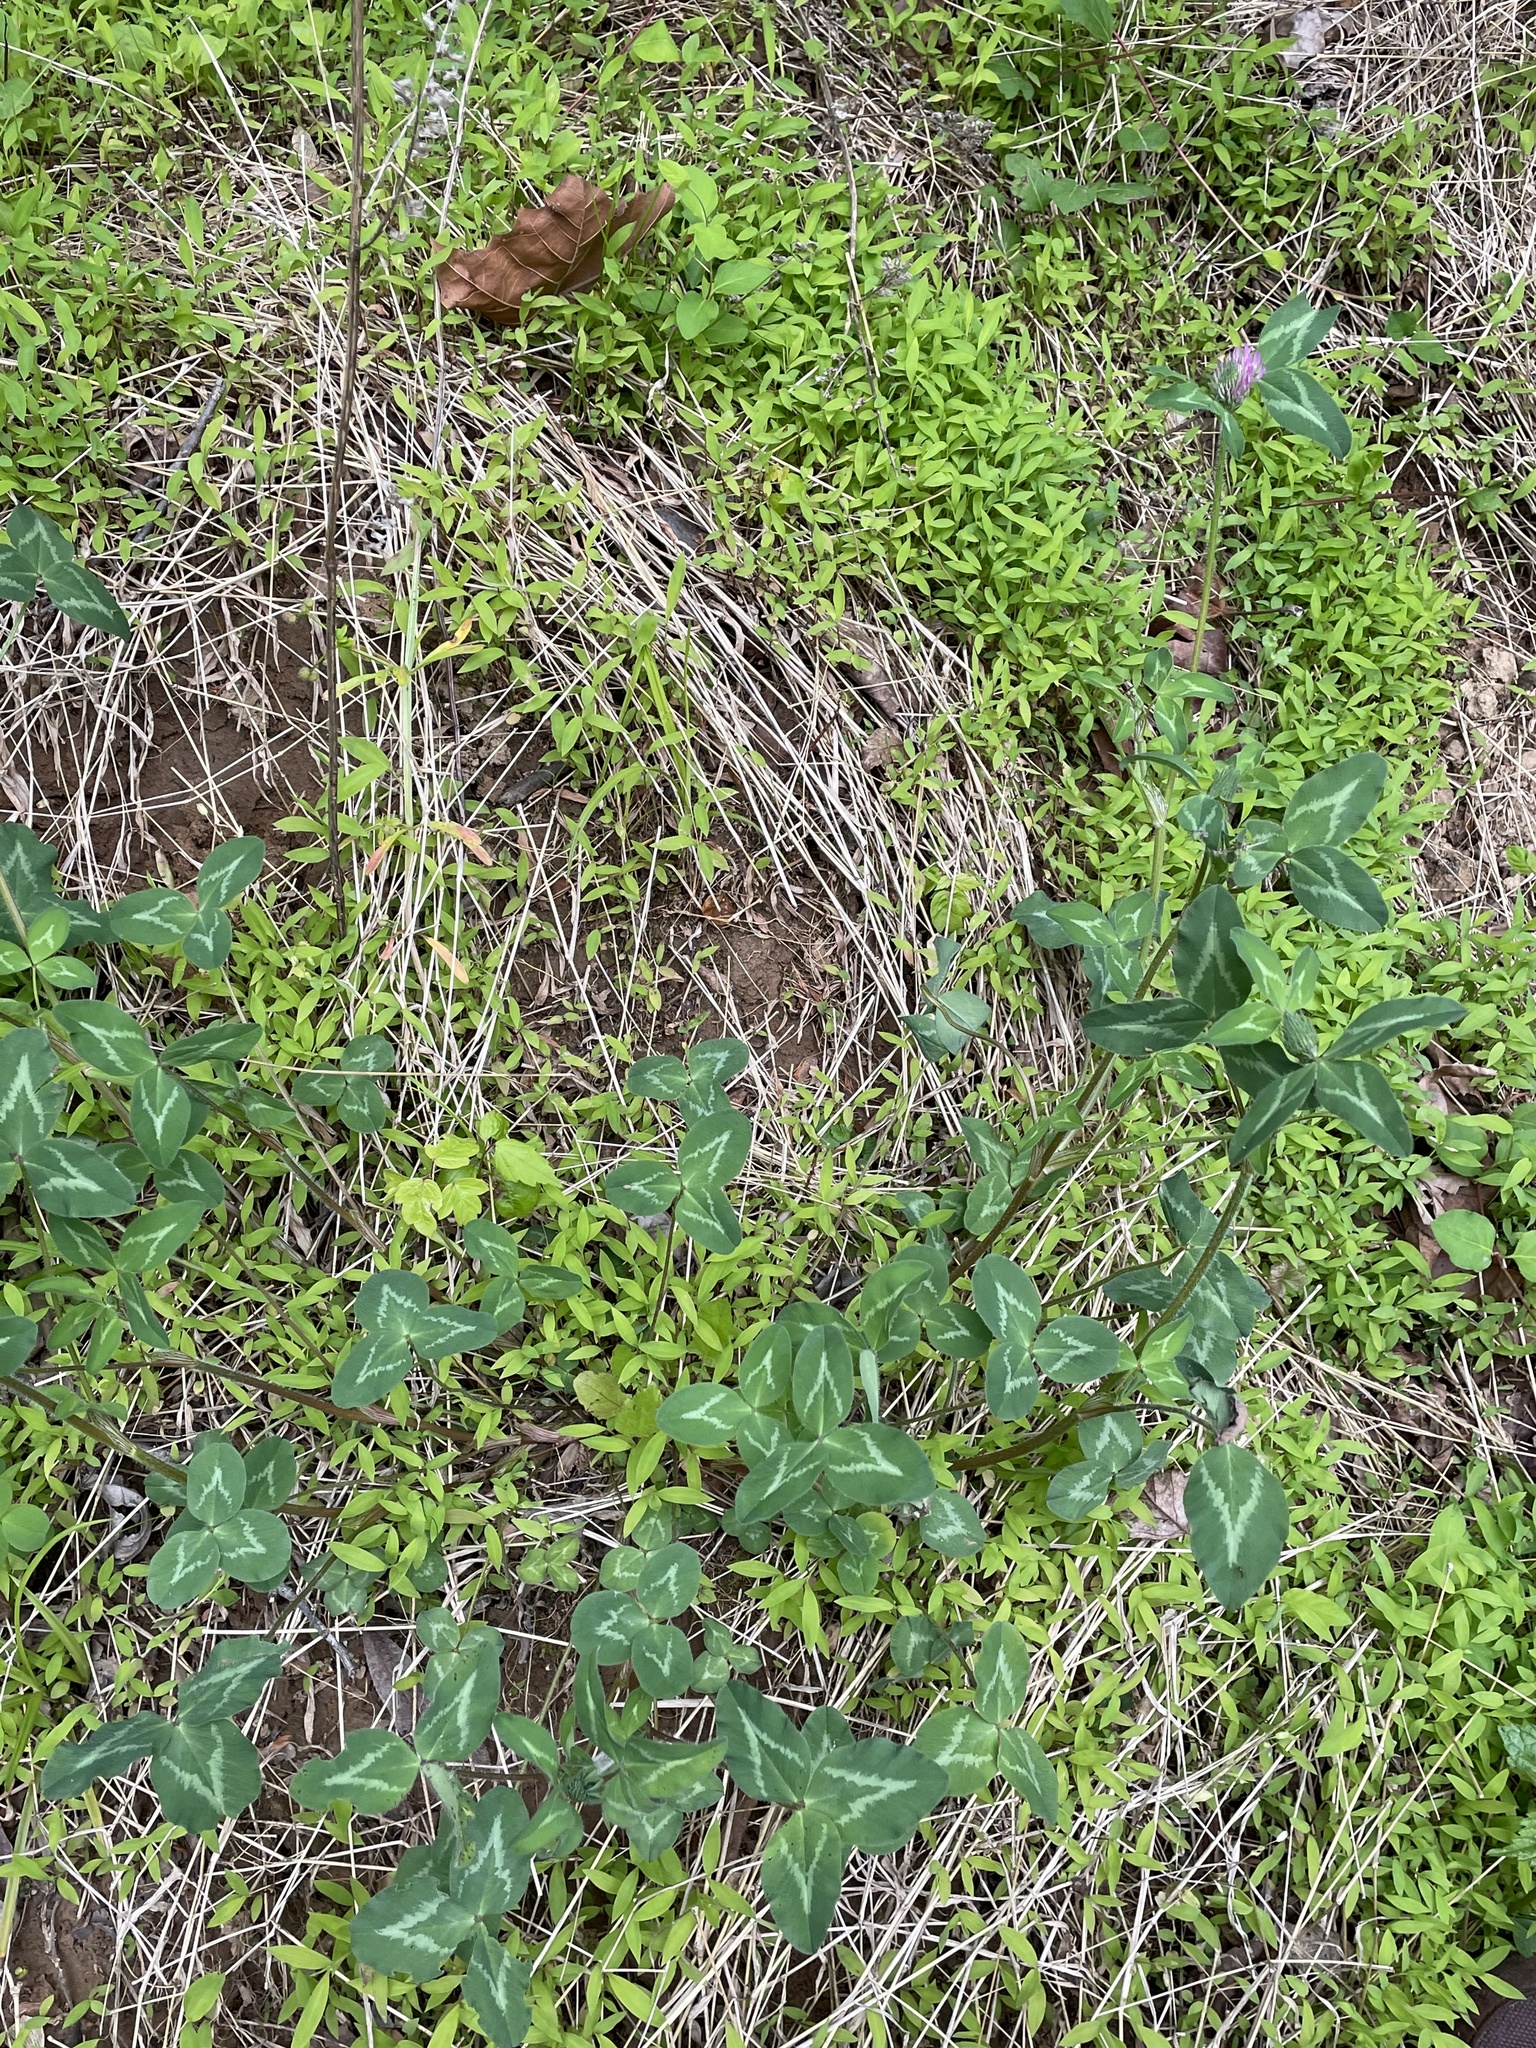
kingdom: Plantae
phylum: Tracheophyta
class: Magnoliopsida
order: Fabales
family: Fabaceae
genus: Trifolium
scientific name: Trifolium pratense
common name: Red clover
